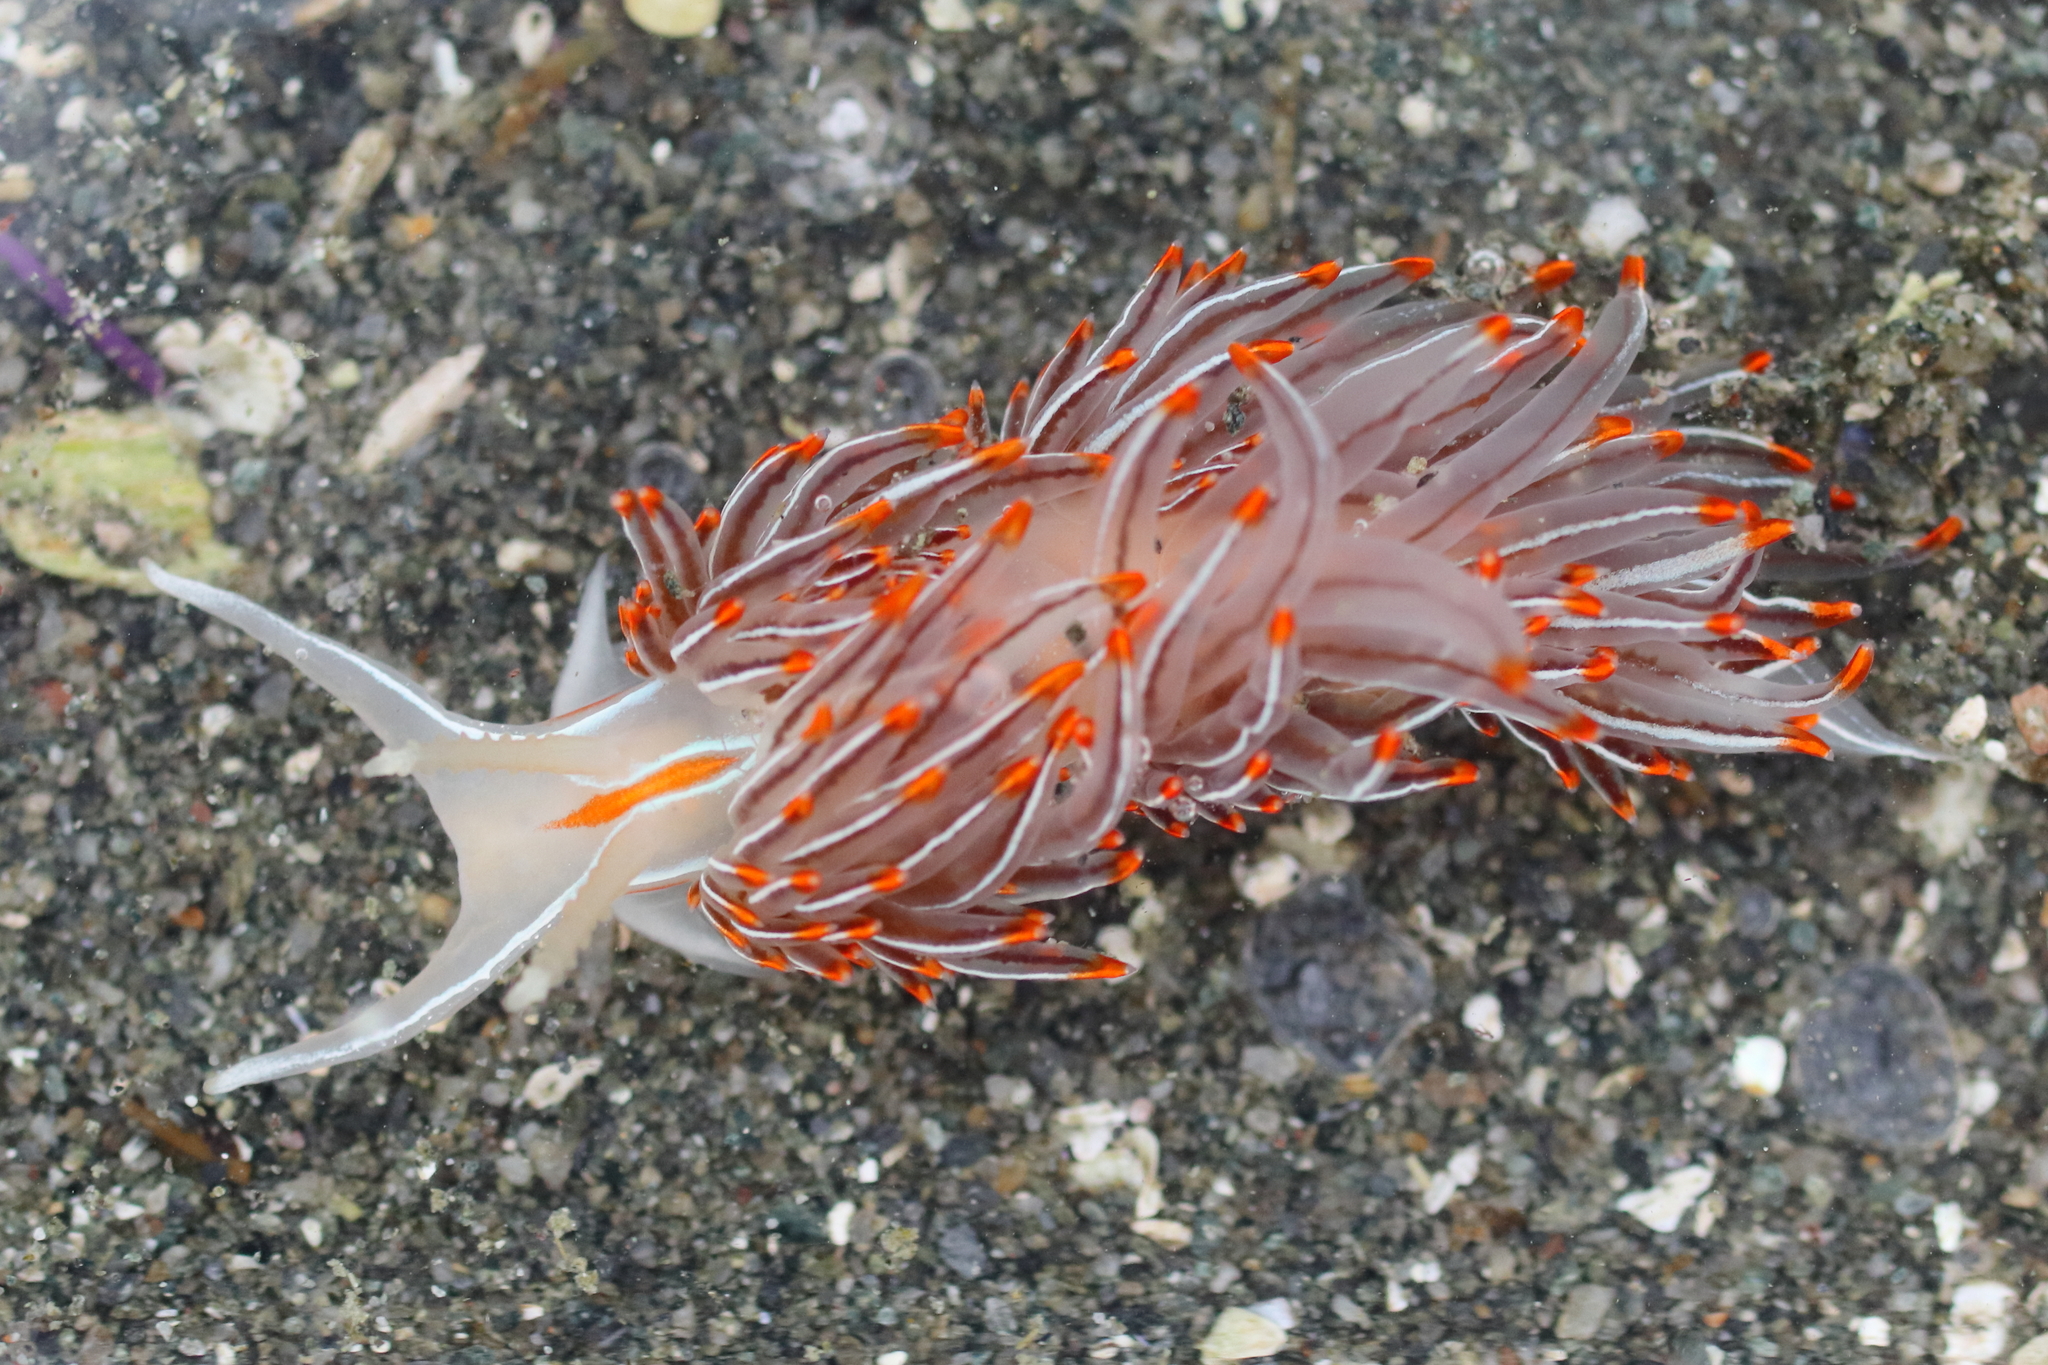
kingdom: Animalia
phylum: Mollusca
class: Gastropoda
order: Nudibranchia
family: Myrrhinidae
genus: Hermissenda
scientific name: Hermissenda crassicornis
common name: Hermissenda
